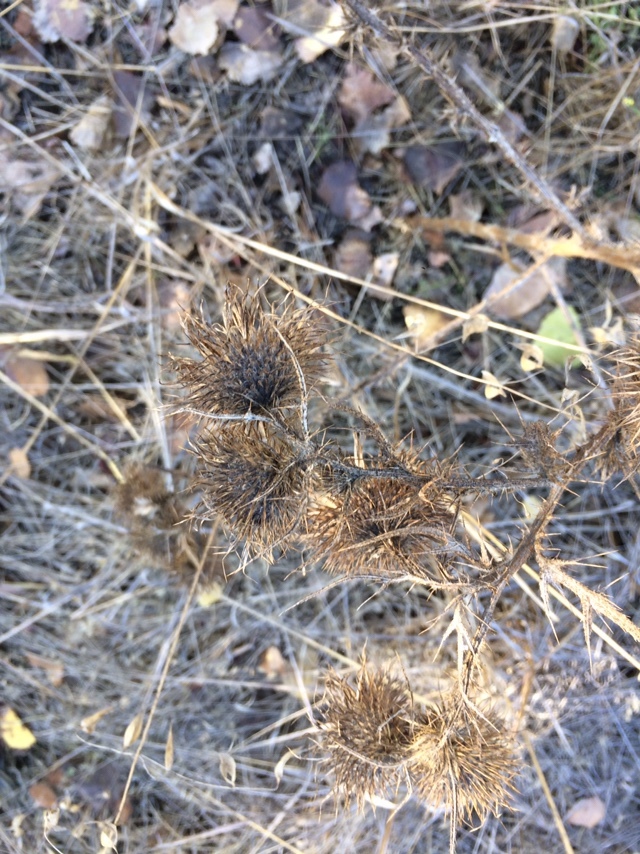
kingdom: Plantae
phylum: Tracheophyta
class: Magnoliopsida
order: Asterales
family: Asteraceae
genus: Cirsium
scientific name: Cirsium vulgare
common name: Bull thistle
